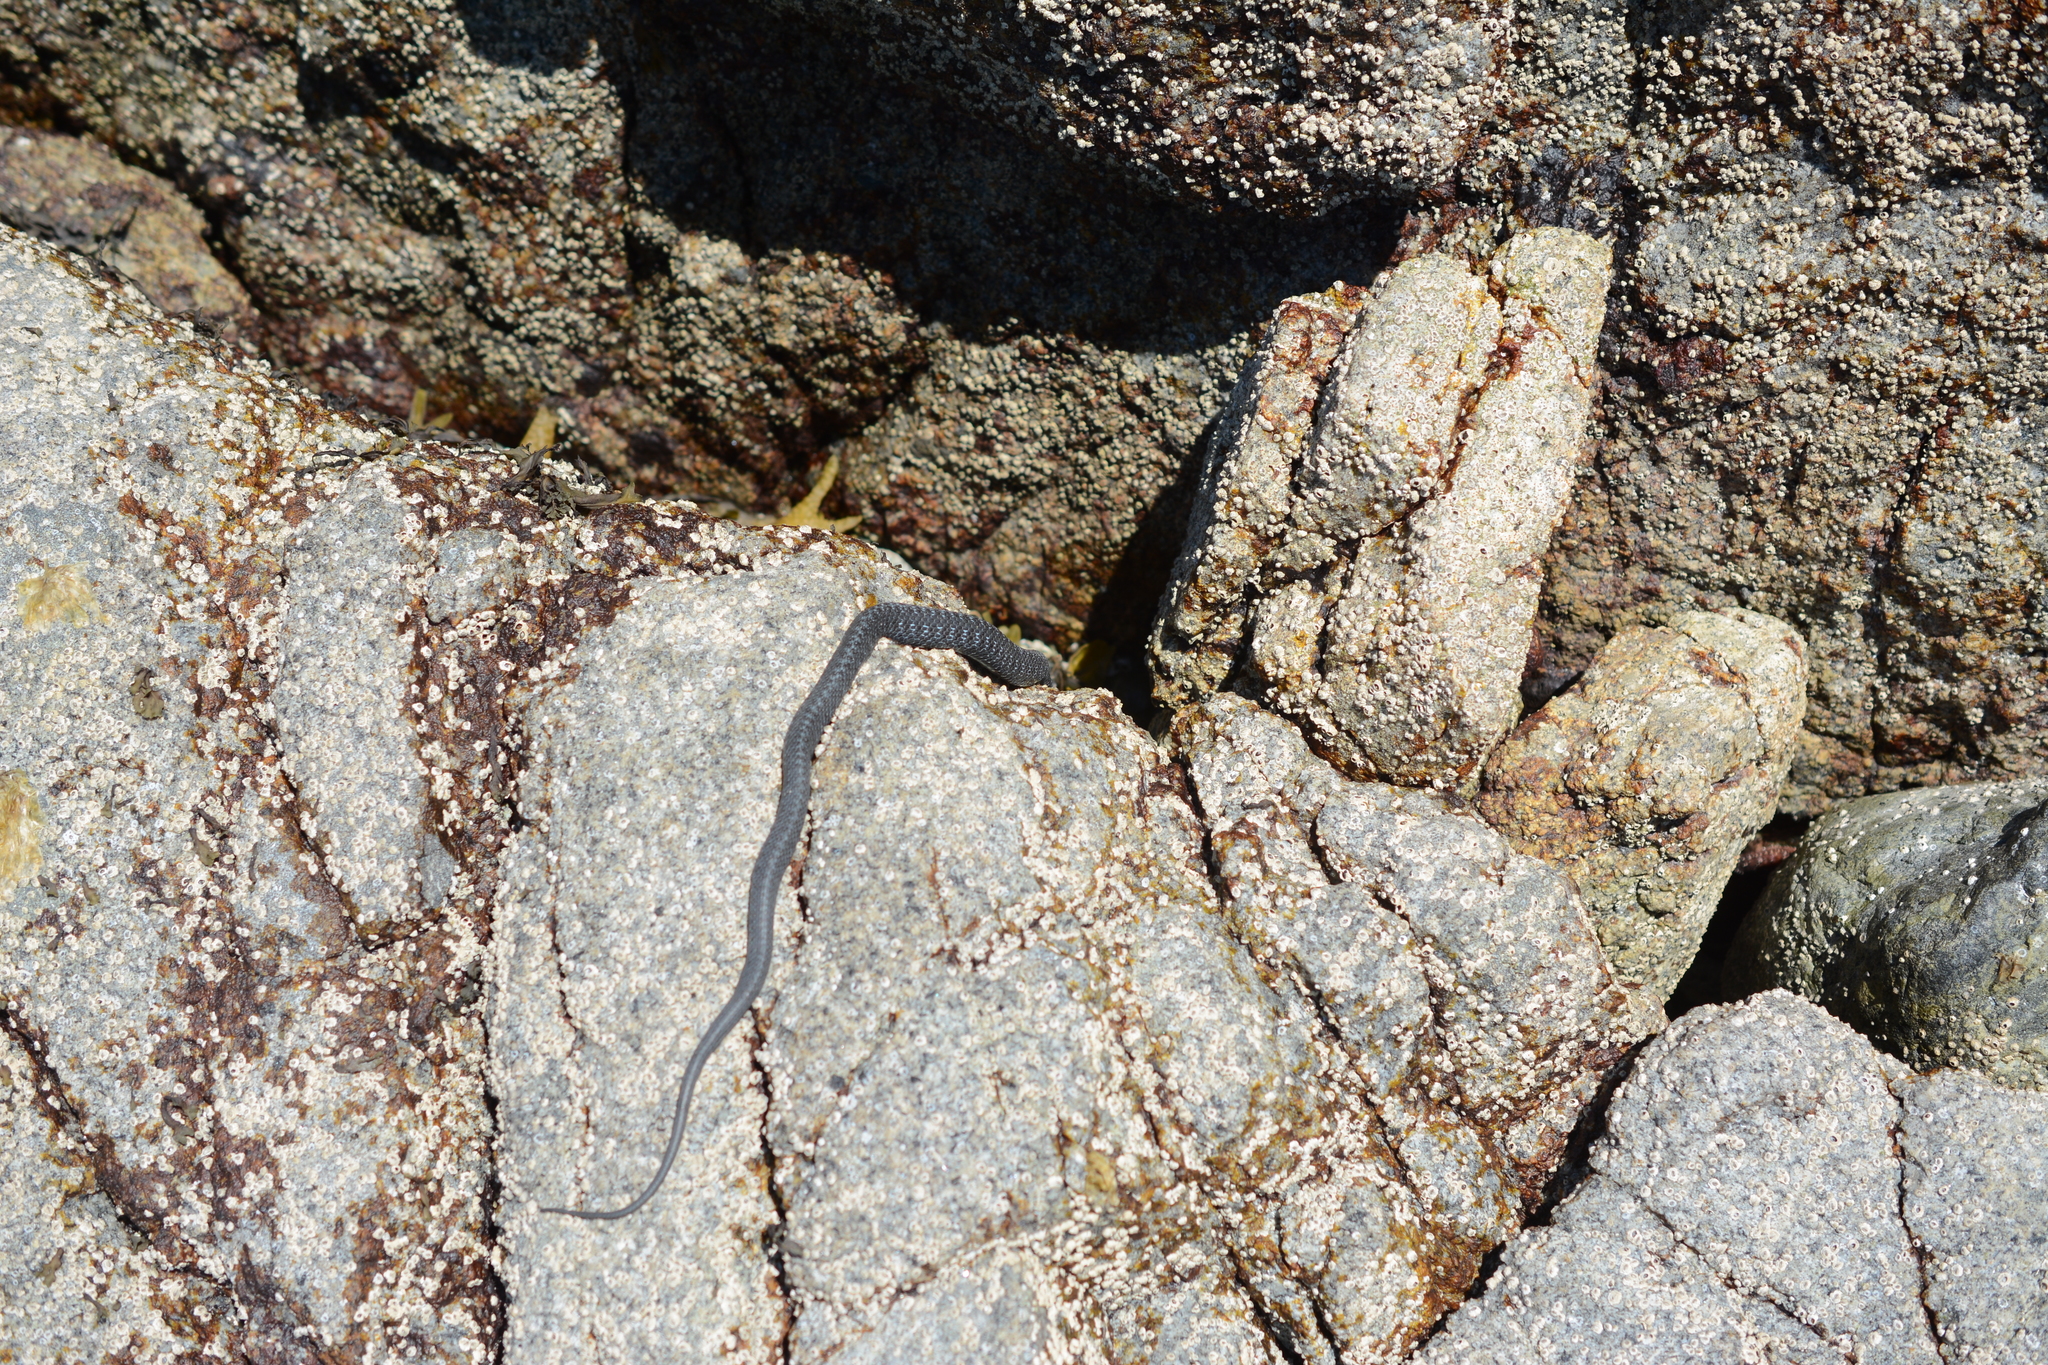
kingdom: Animalia
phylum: Chordata
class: Squamata
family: Colubridae
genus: Thamnophis
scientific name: Thamnophis elegans
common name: Western terrestrial garter snake
